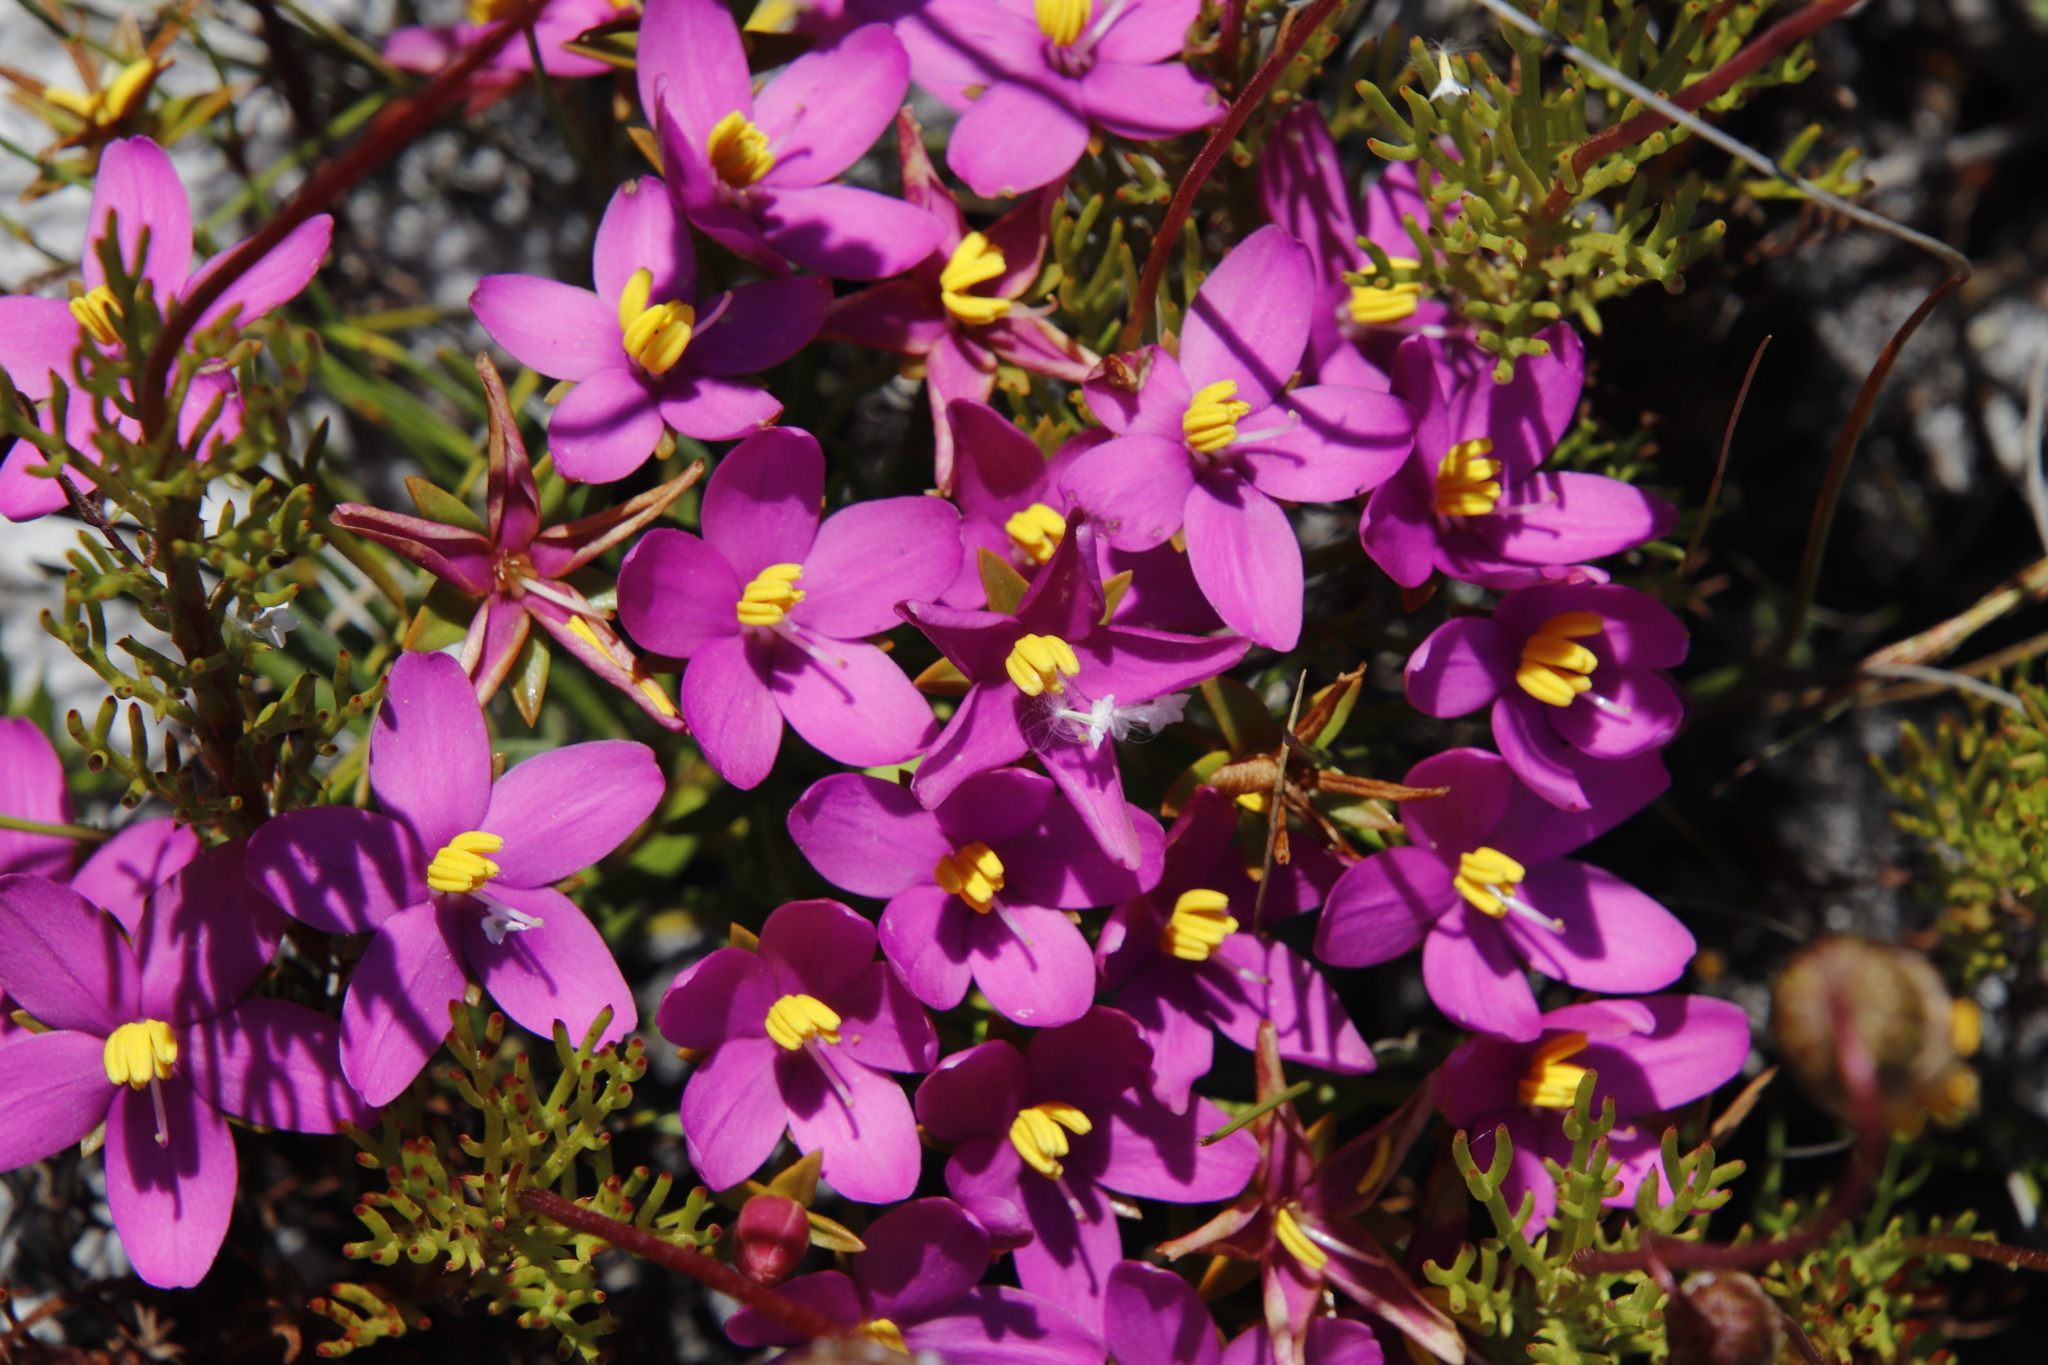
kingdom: Plantae
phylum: Tracheophyta
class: Magnoliopsida
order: Gentianales
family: Gentianaceae
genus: Chironia
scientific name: Chironia linoides
